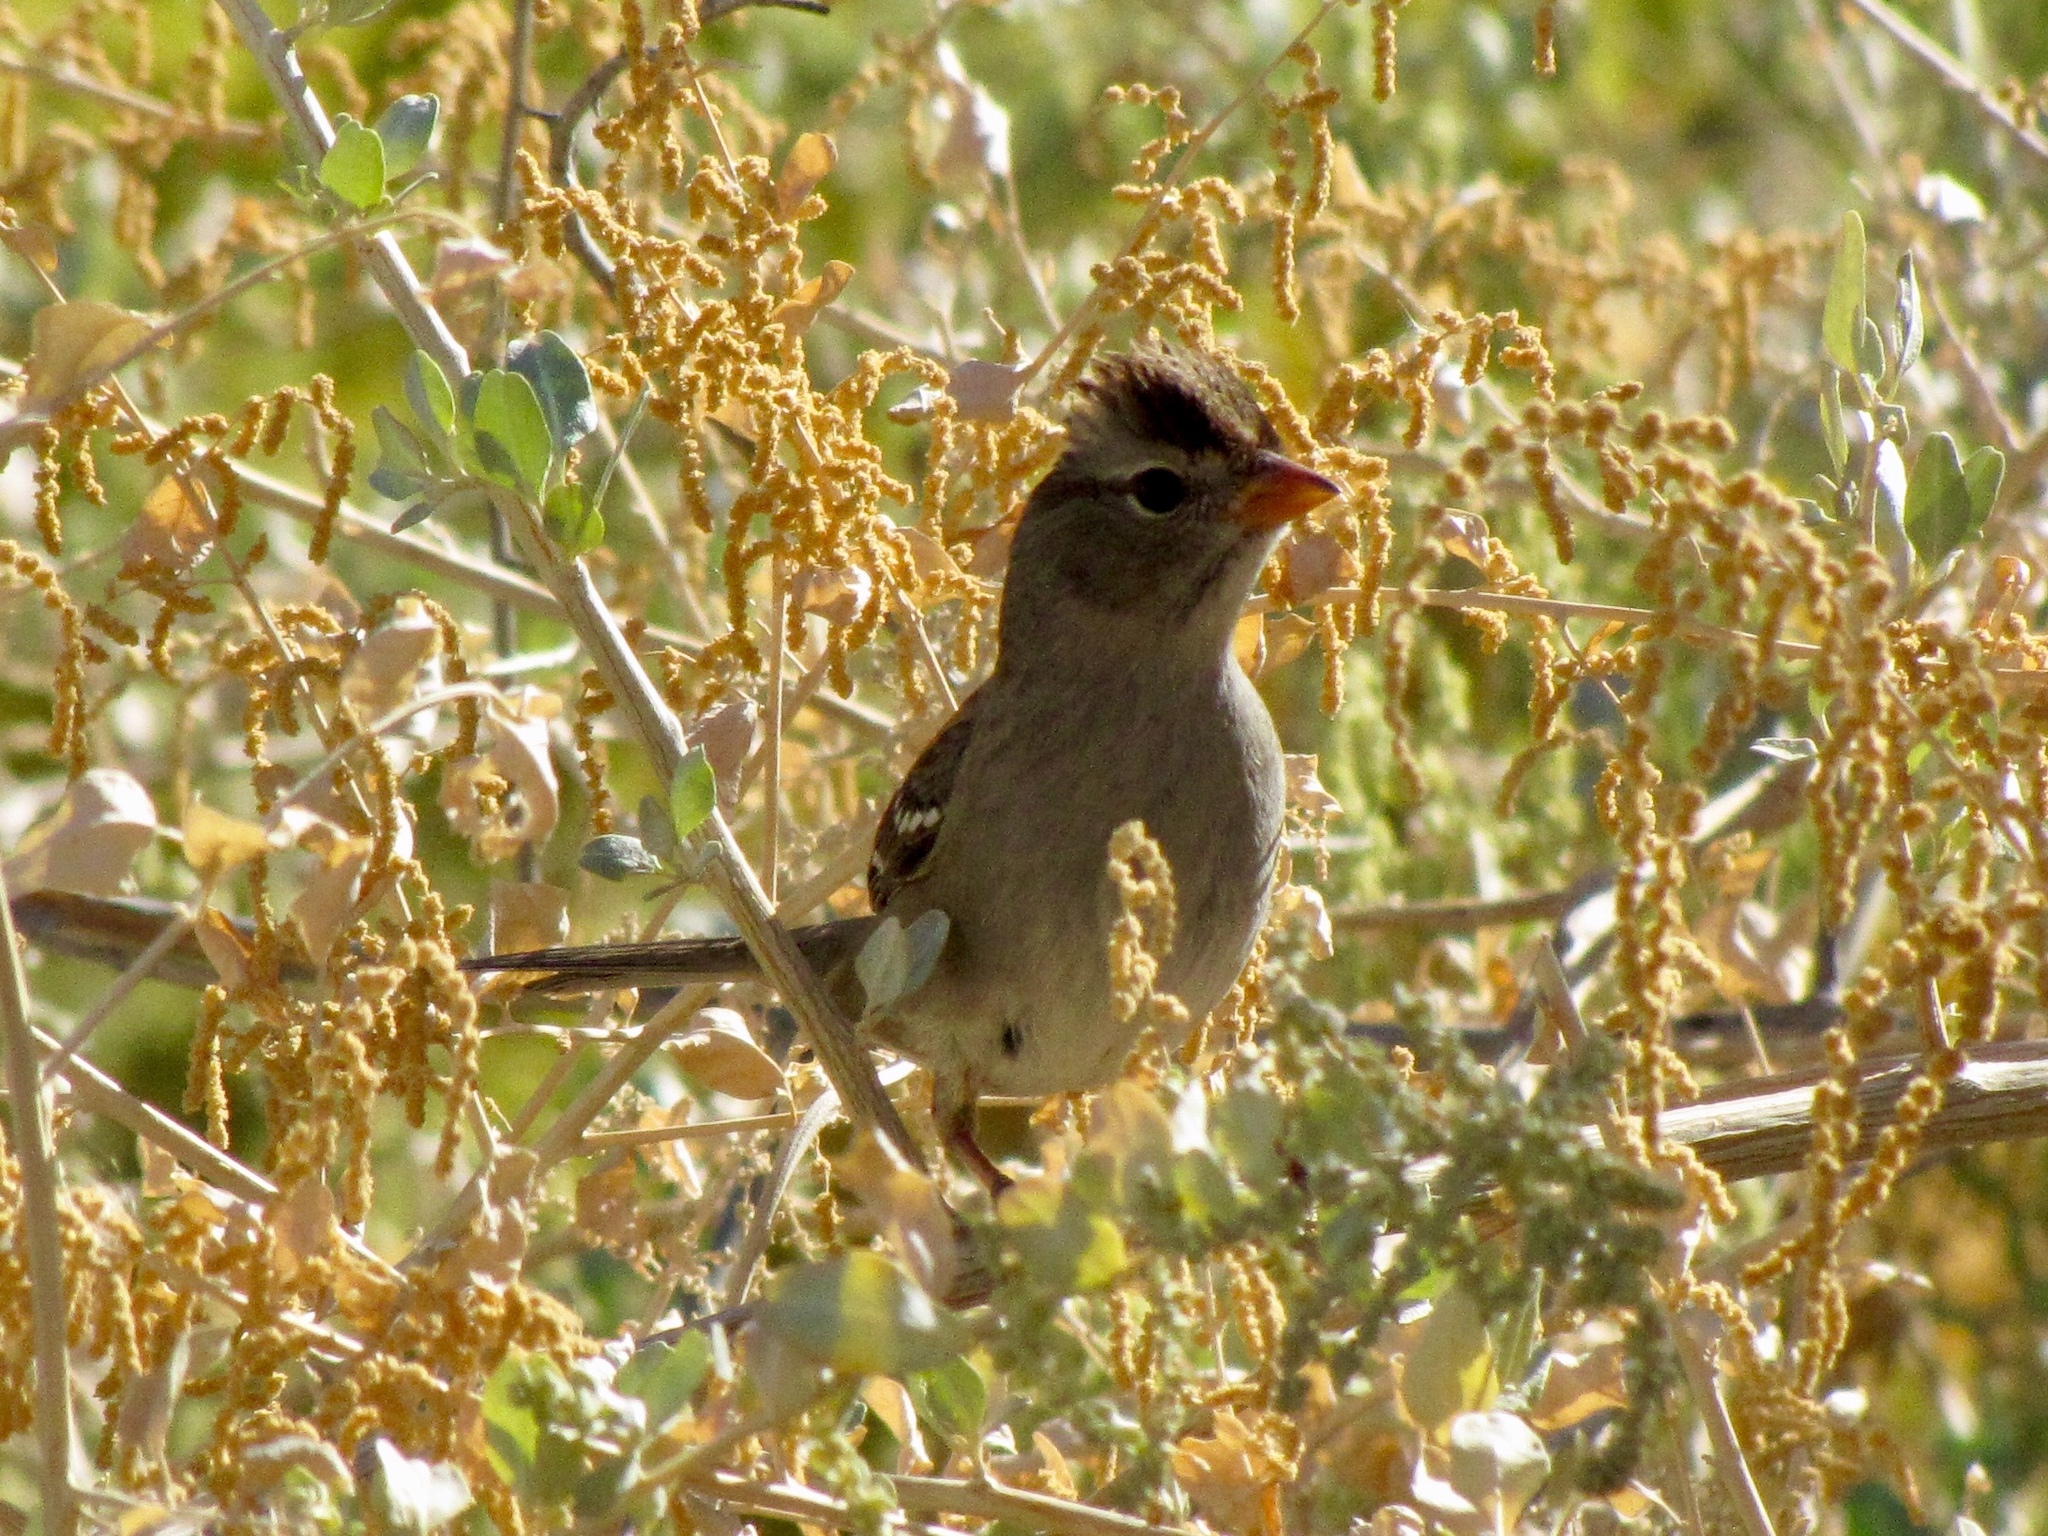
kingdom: Animalia
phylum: Chordata
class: Aves
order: Passeriformes
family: Passerellidae
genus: Zonotrichia
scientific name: Zonotrichia leucophrys
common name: White-crowned sparrow
